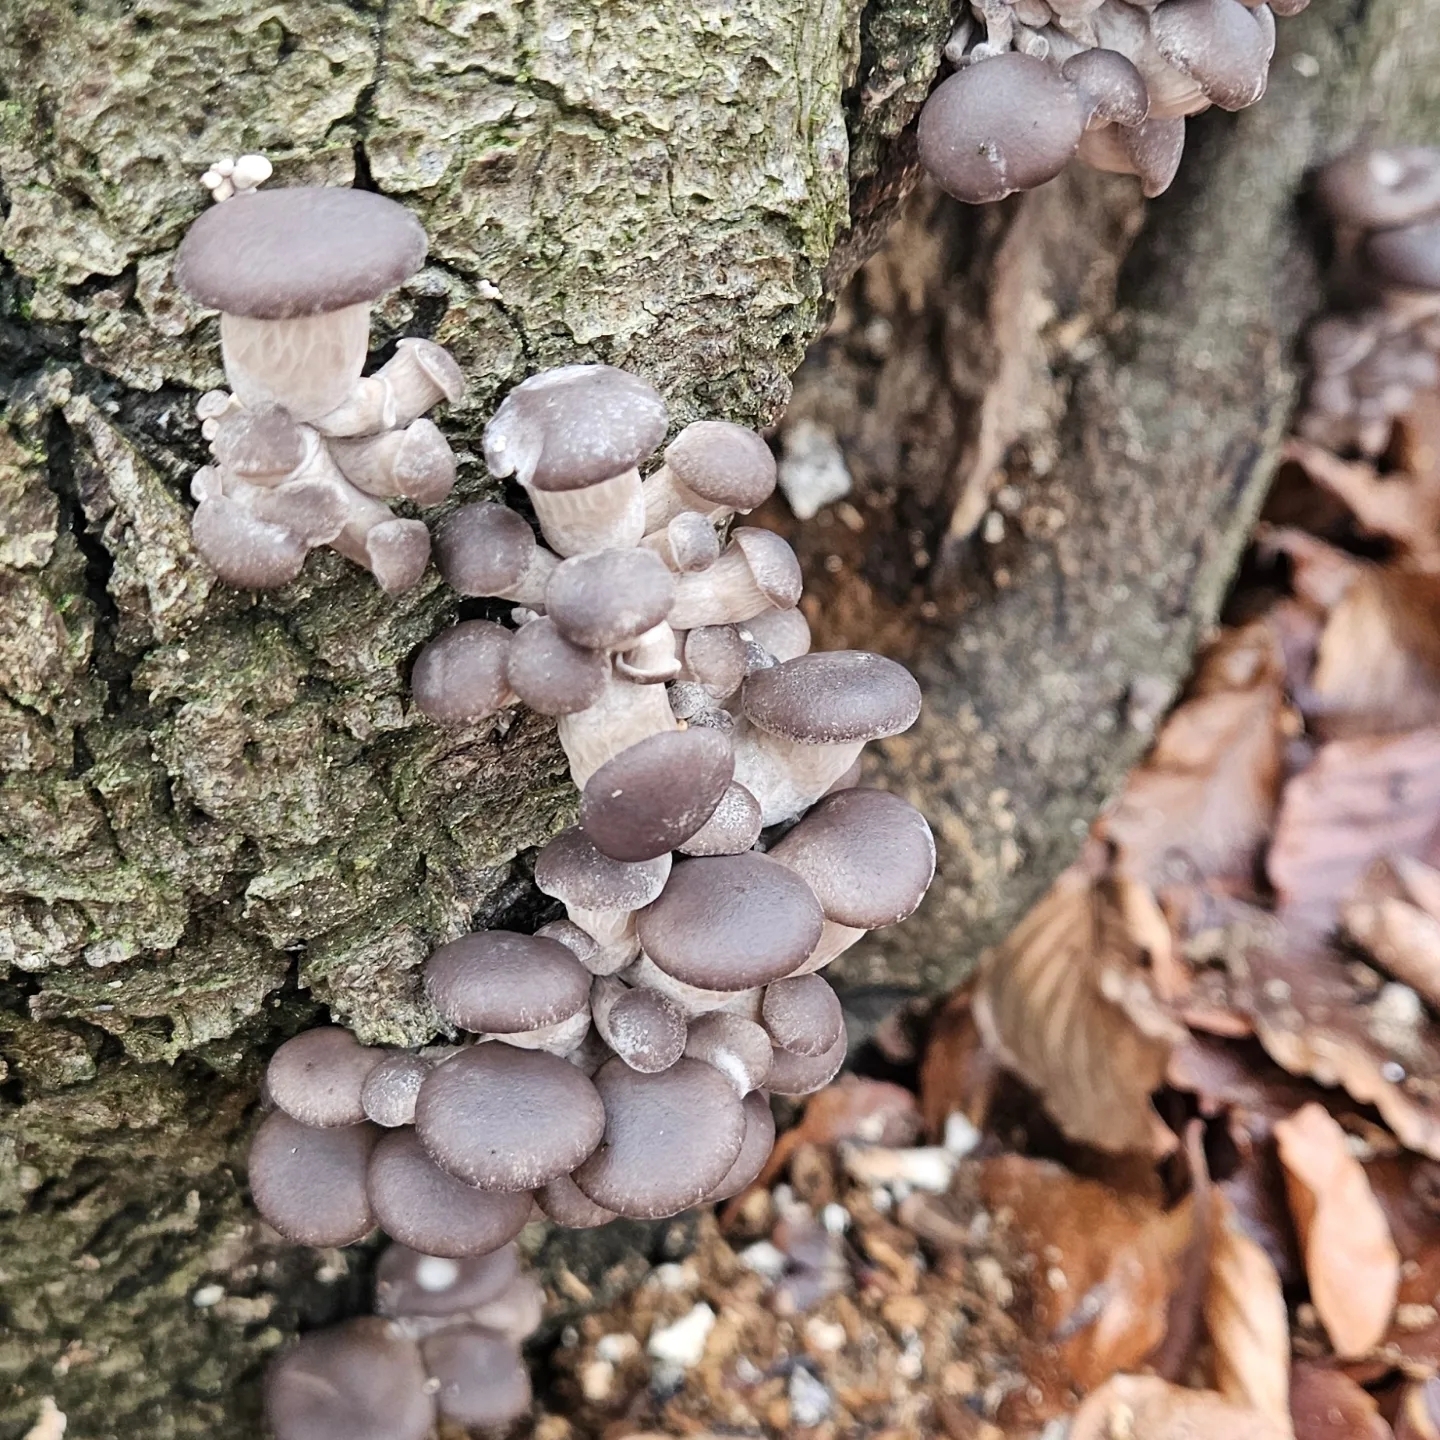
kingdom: Fungi
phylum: Basidiomycota
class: Agaricomycetes
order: Agaricales
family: Pleurotaceae
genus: Pleurotus
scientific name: Pleurotus ostreatus
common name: Oyster mushroom
